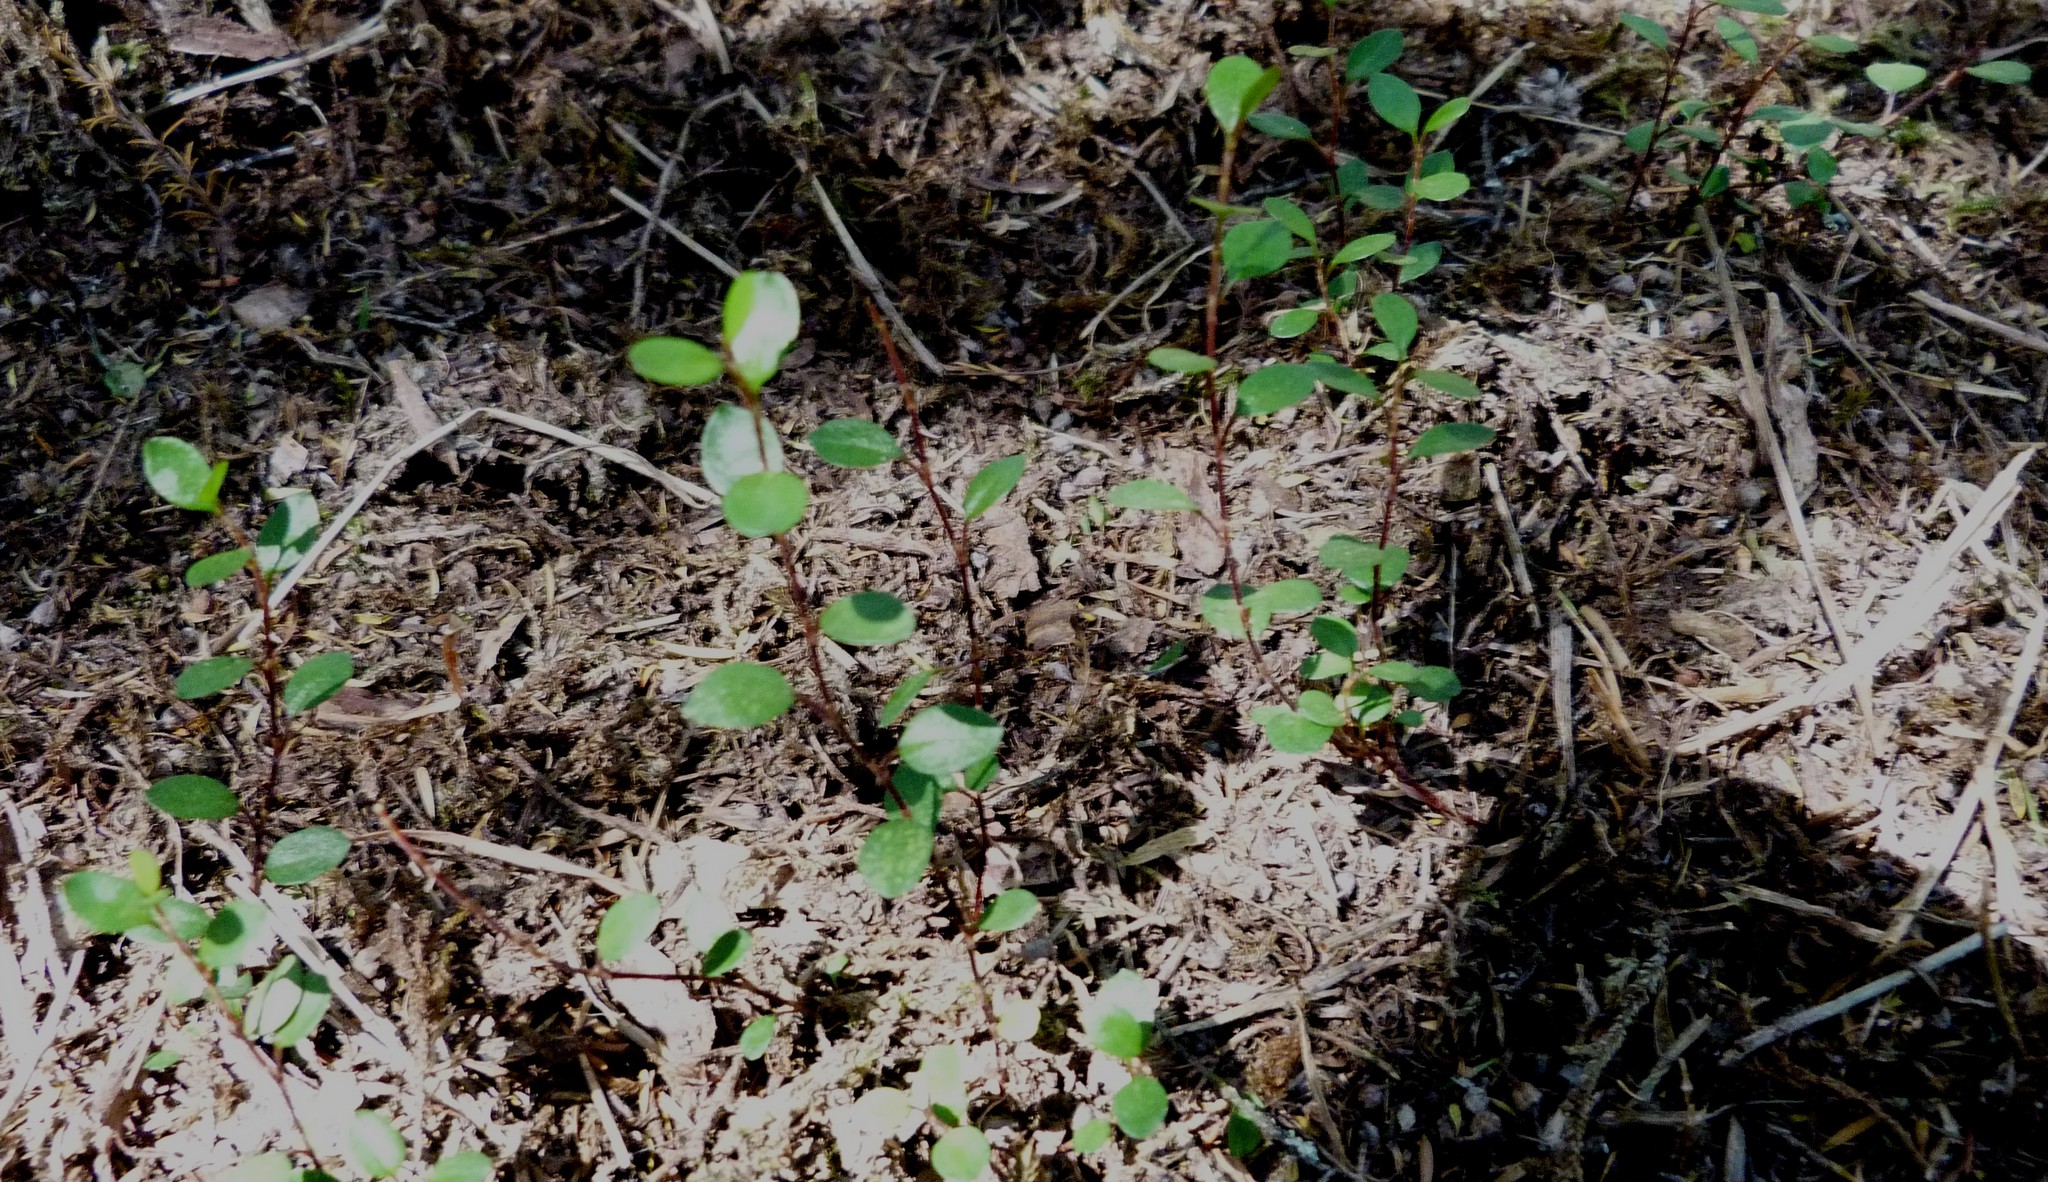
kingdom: Plantae
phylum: Tracheophyta
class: Magnoliopsida
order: Caryophyllales
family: Polygonaceae
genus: Muehlenbeckia
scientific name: Muehlenbeckia axillaris
